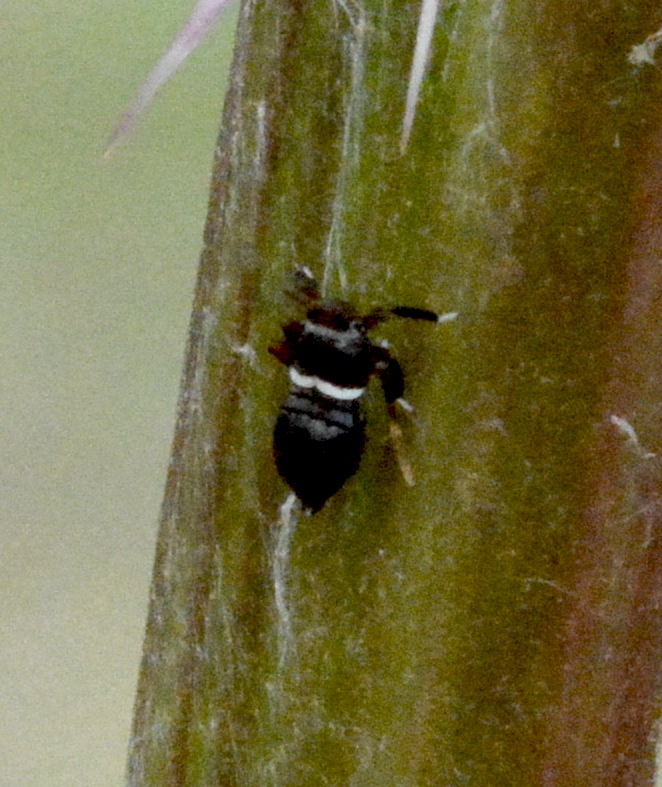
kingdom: Animalia
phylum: Arthropoda
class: Insecta
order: Hemiptera
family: Delphacidae
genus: Pissonotus
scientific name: Pissonotus nitens
